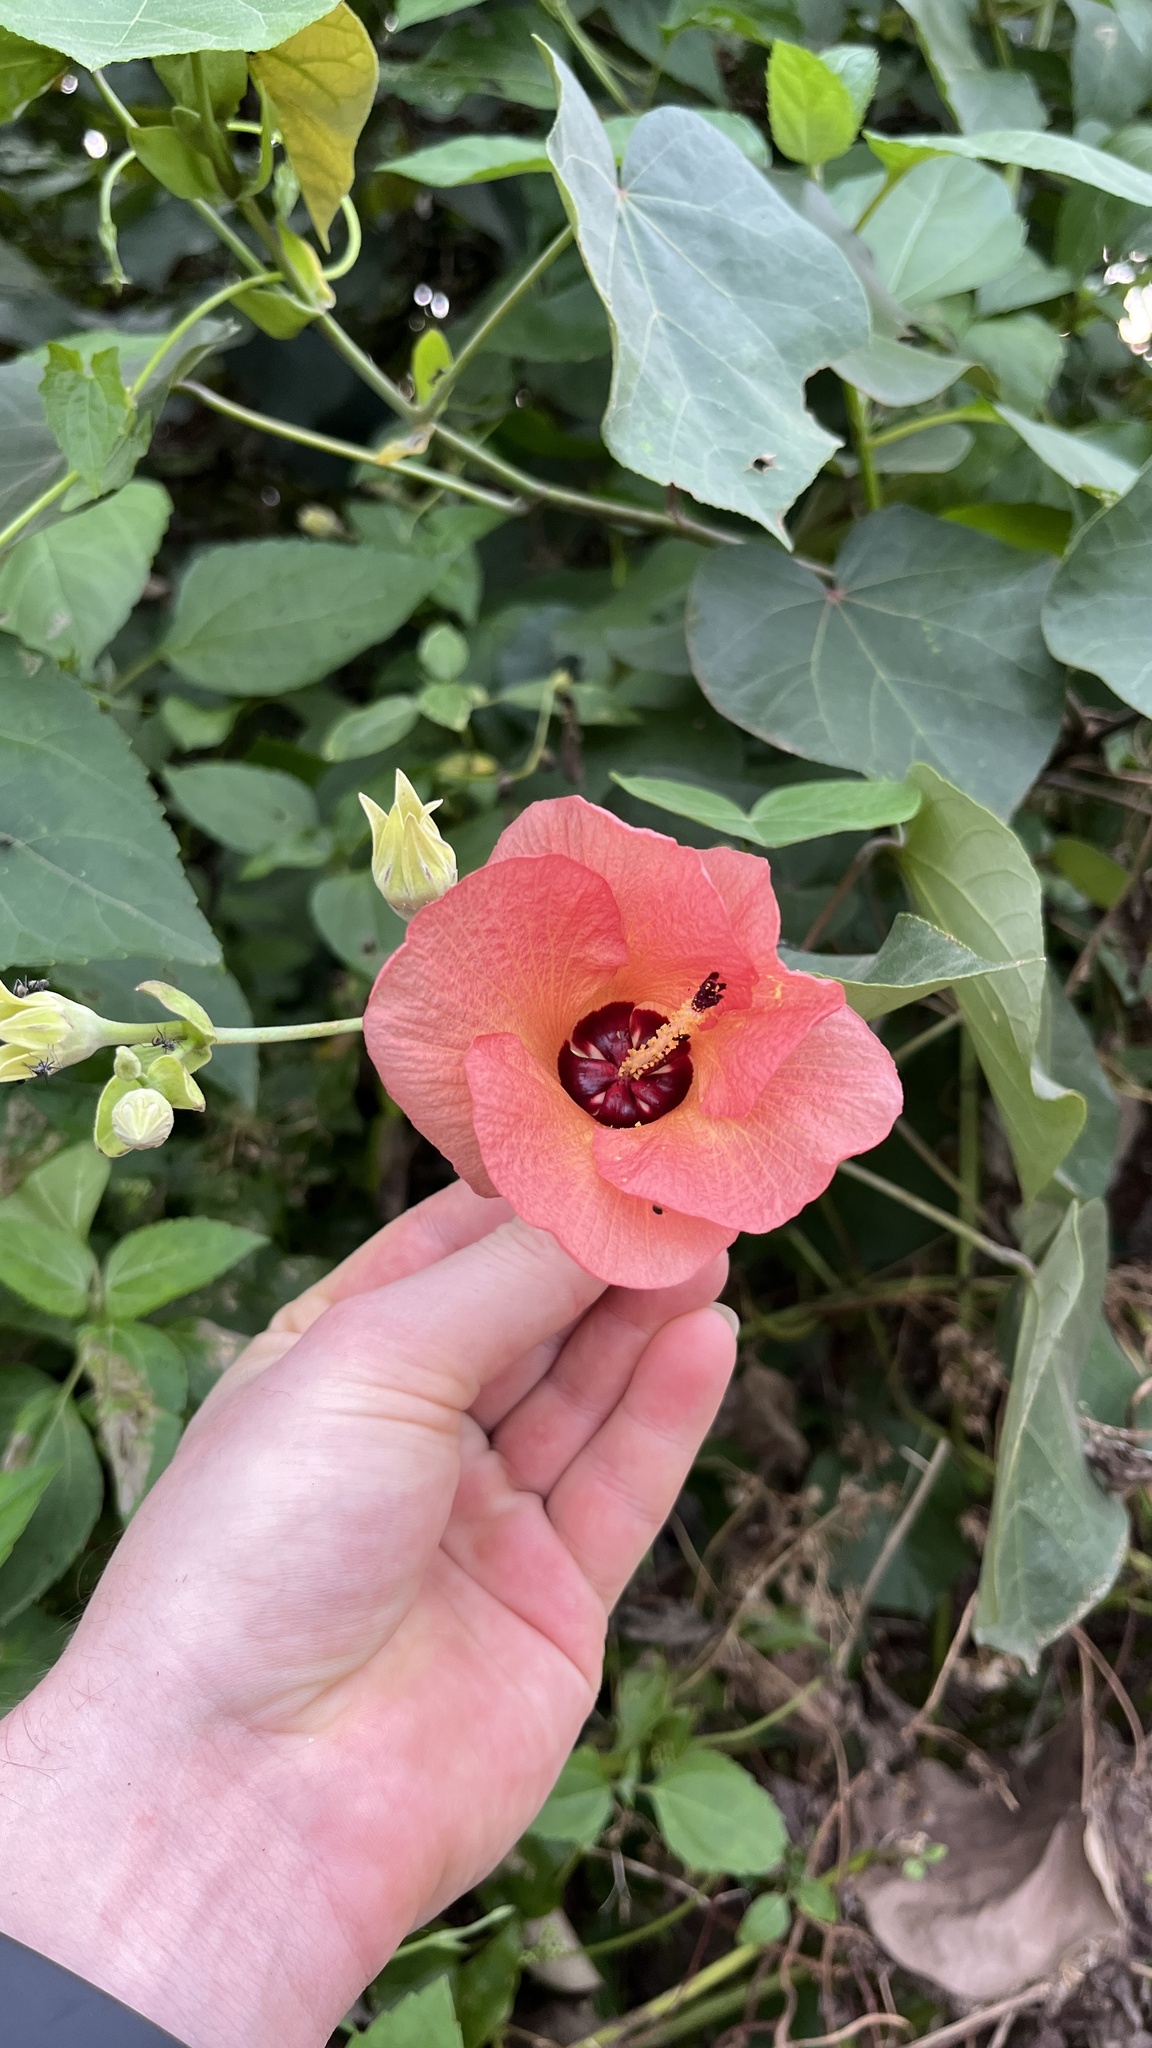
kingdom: Plantae
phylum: Tracheophyta
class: Magnoliopsida
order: Malvales
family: Malvaceae
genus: Talipariti
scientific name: Talipariti tiliaceum
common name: Sea hibiscus
